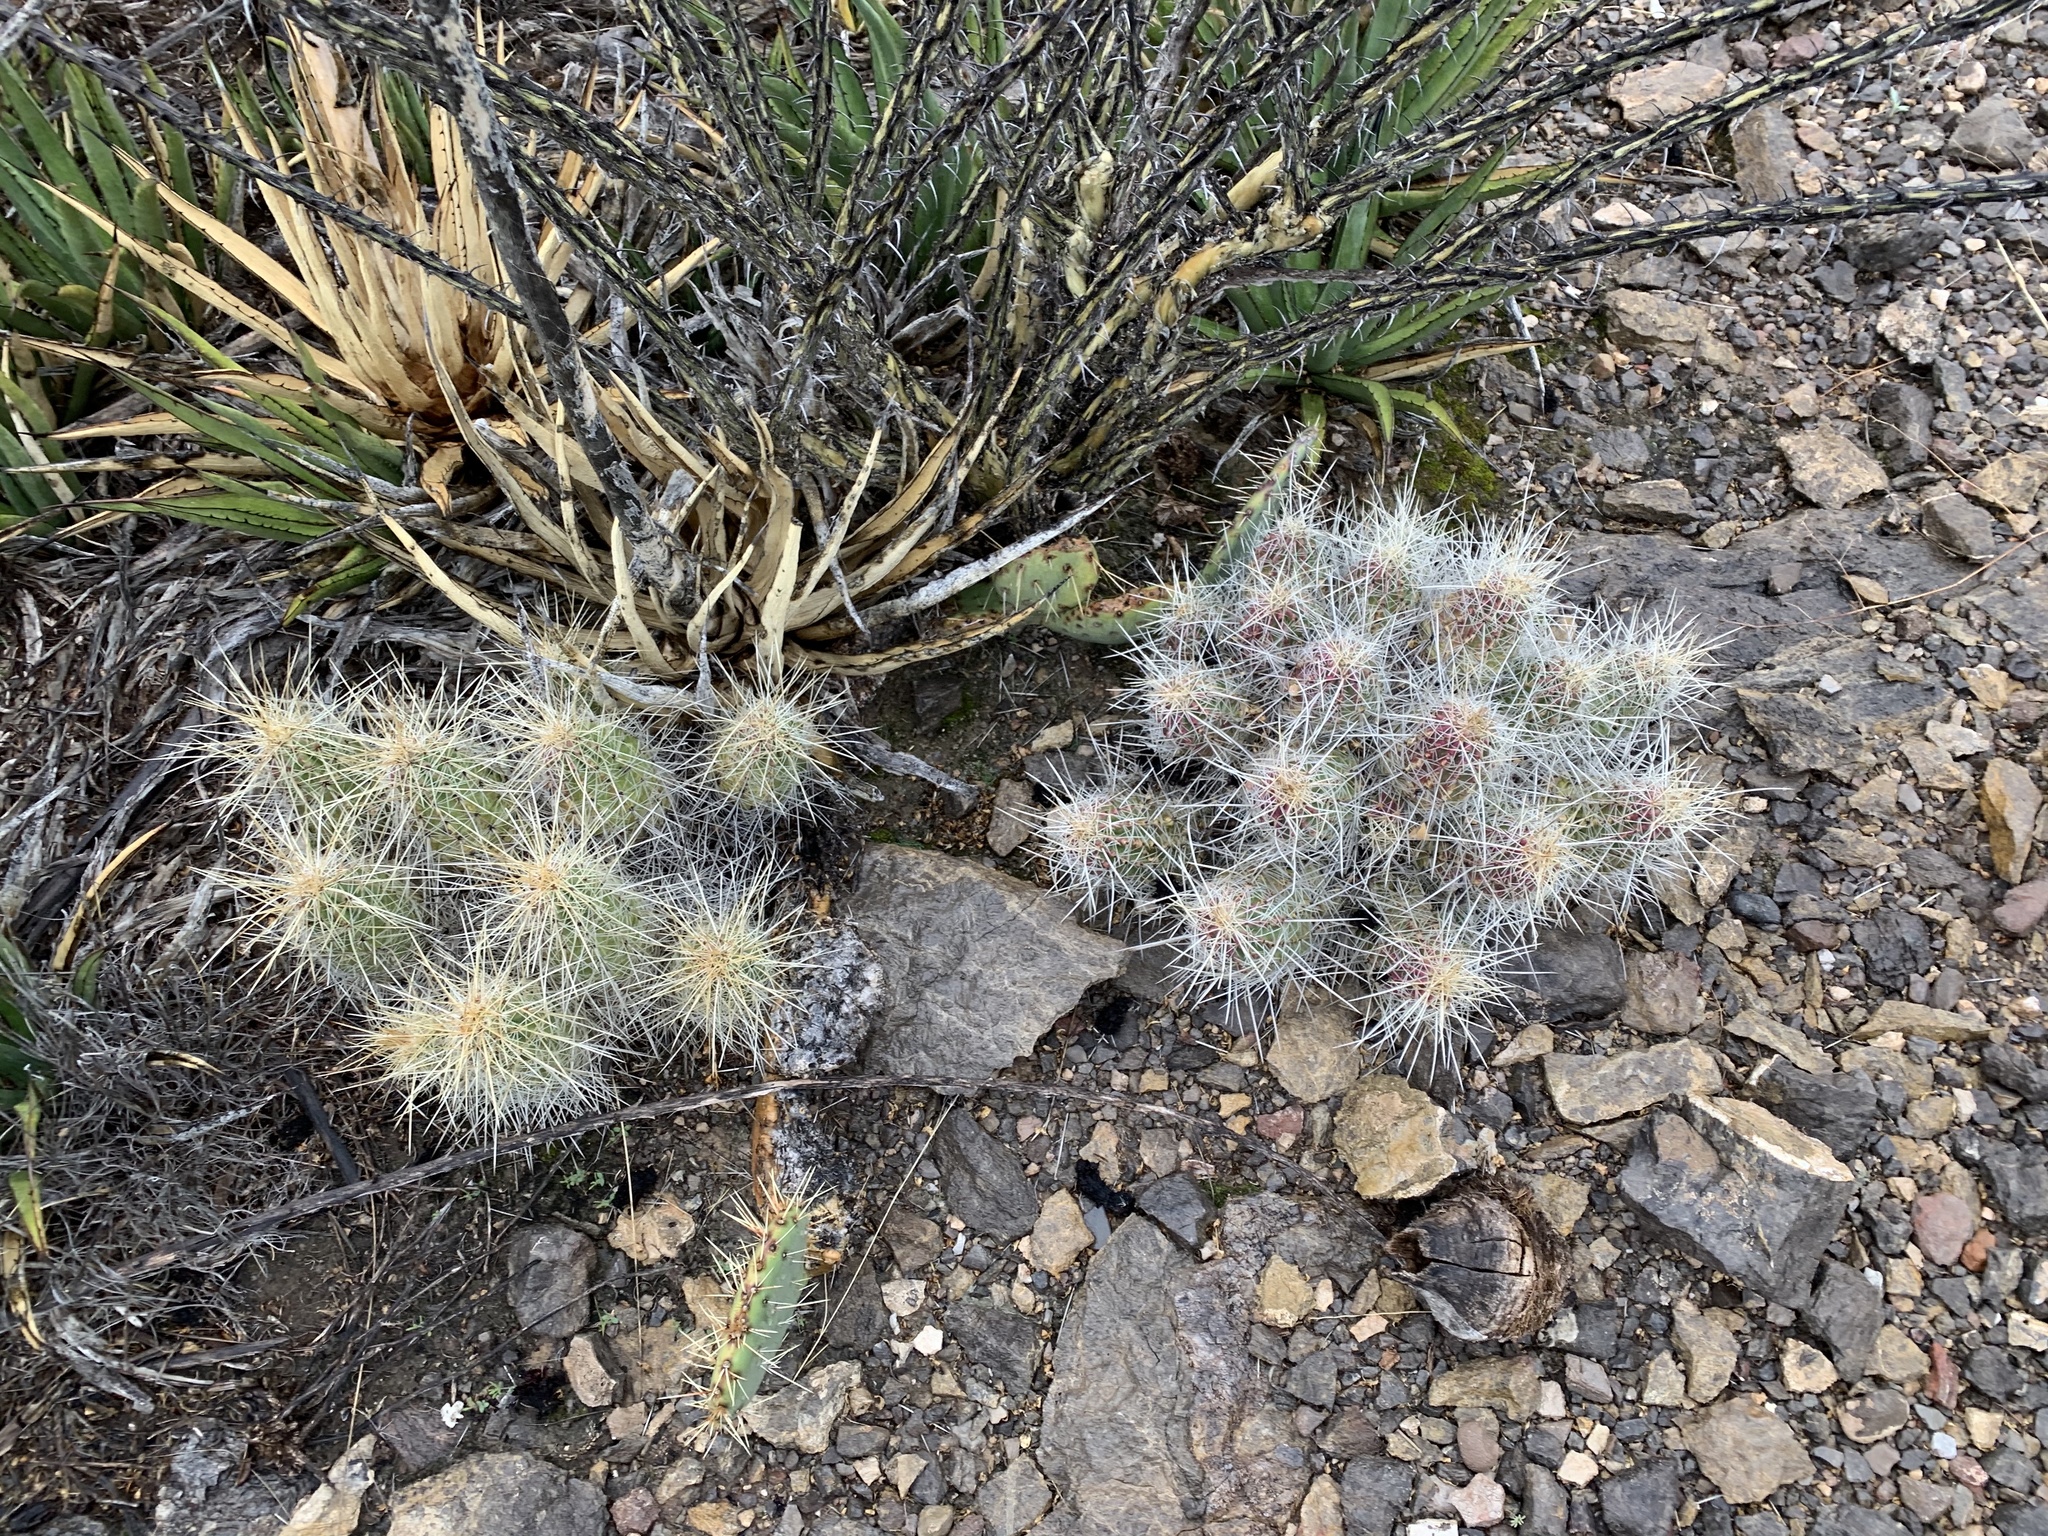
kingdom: Plantae
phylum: Tracheophyta
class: Magnoliopsida
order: Caryophyllales
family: Cactaceae
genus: Echinocereus
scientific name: Echinocereus stramineus
